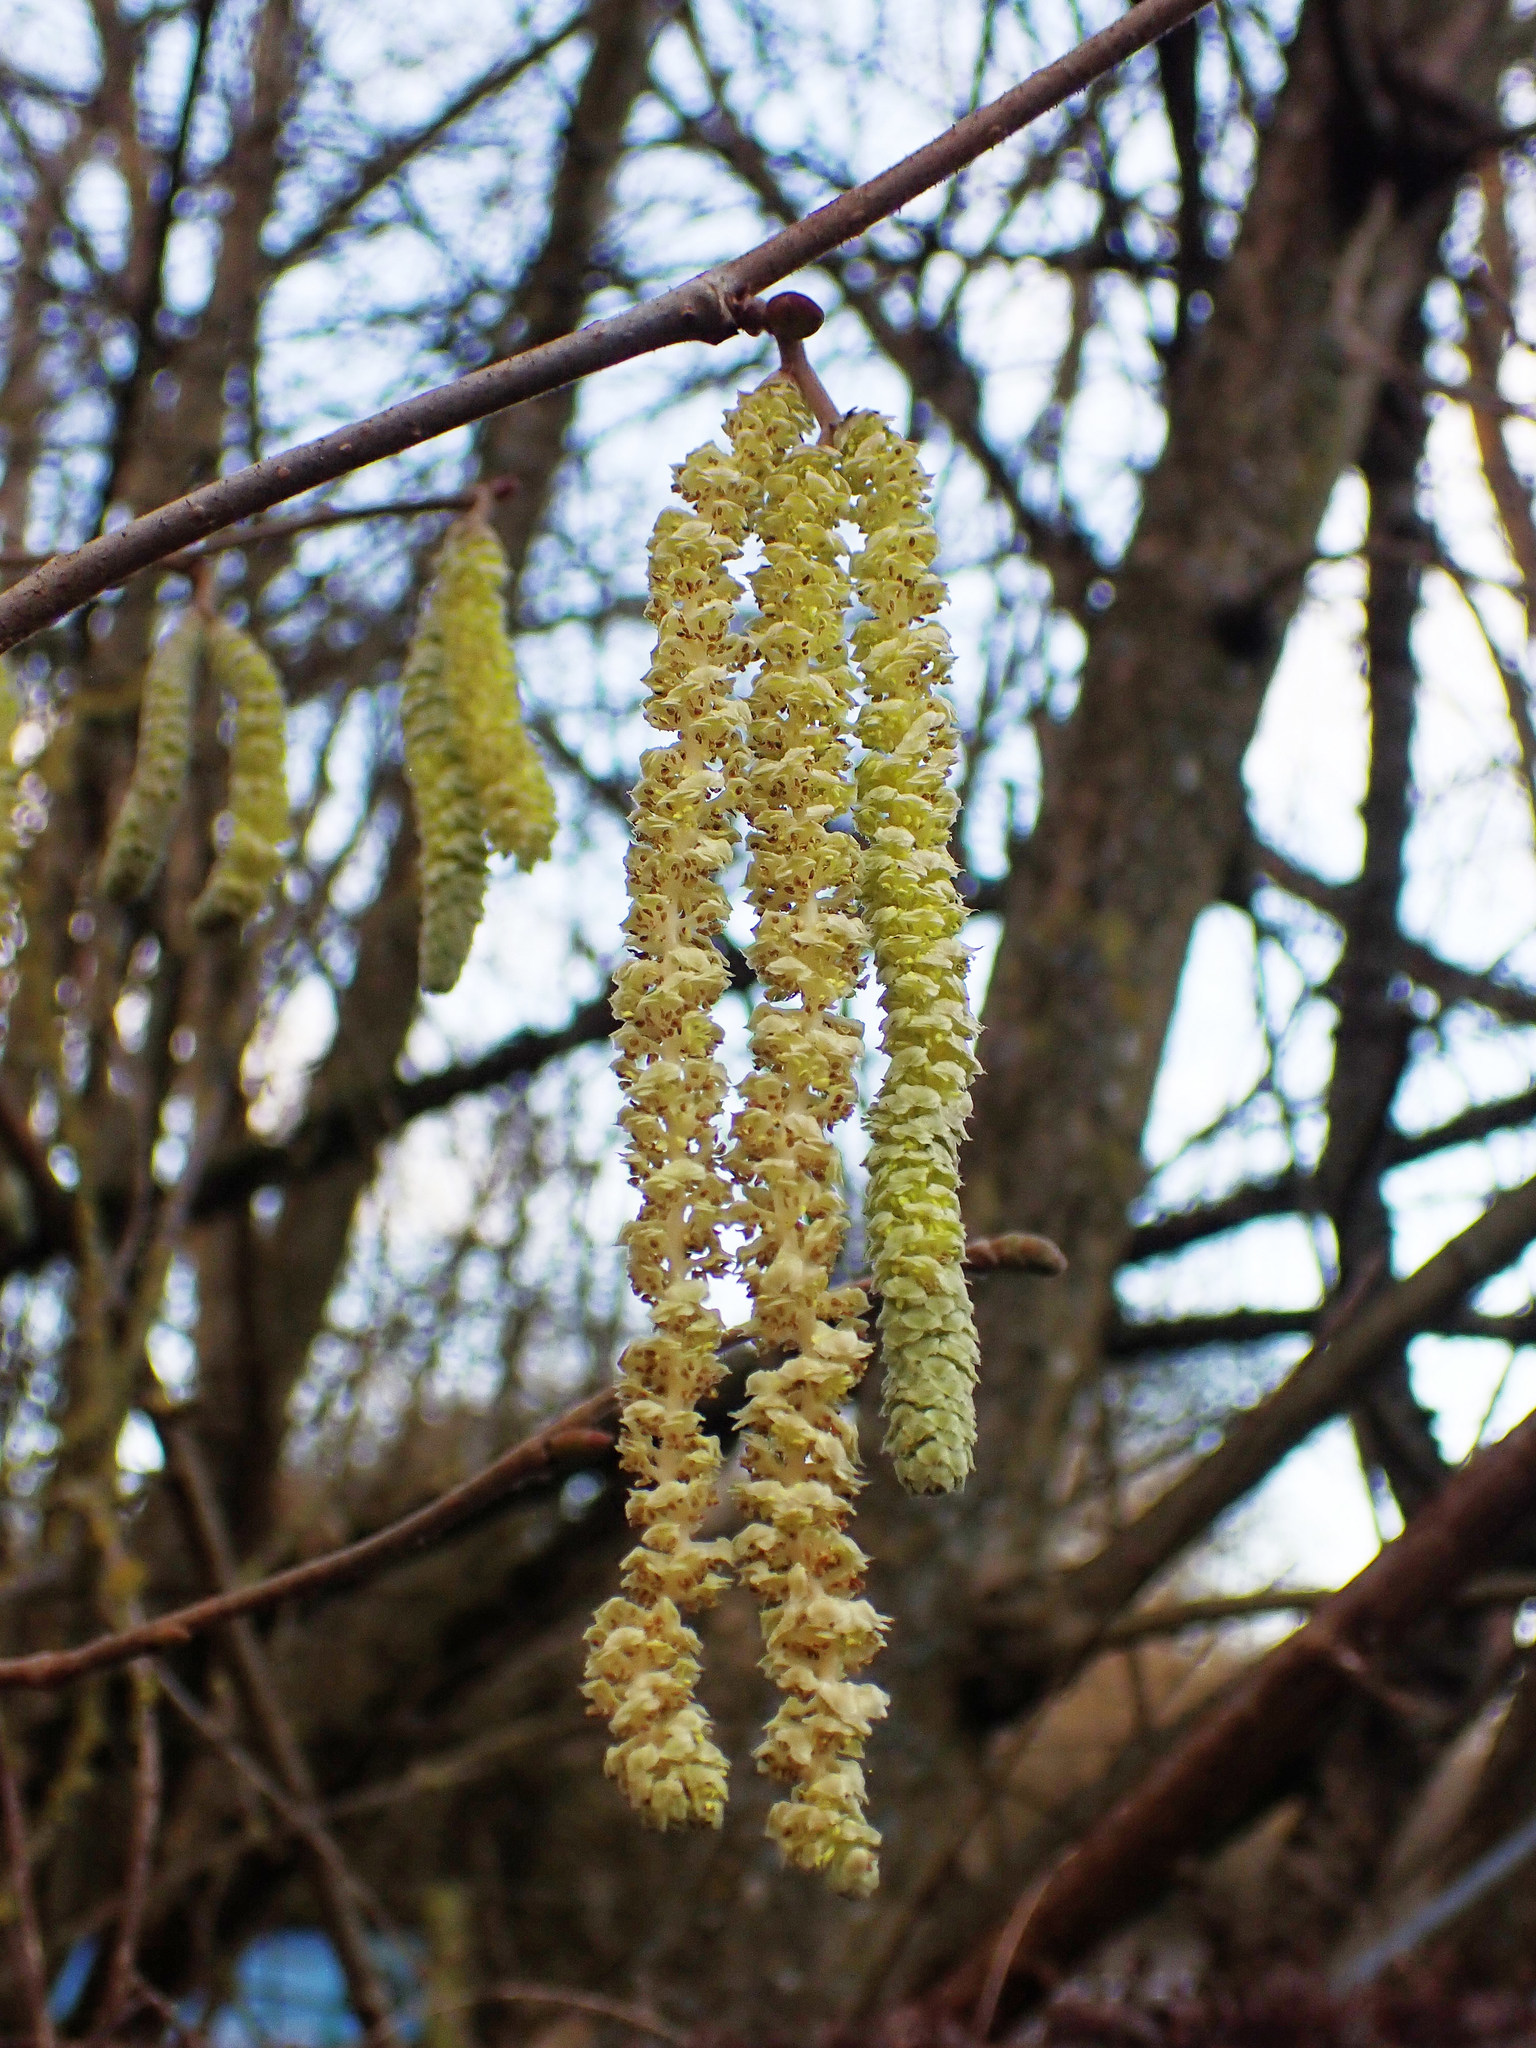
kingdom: Plantae
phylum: Tracheophyta
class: Magnoliopsida
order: Fagales
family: Betulaceae
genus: Corylus
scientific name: Corylus avellana
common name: European hazel
